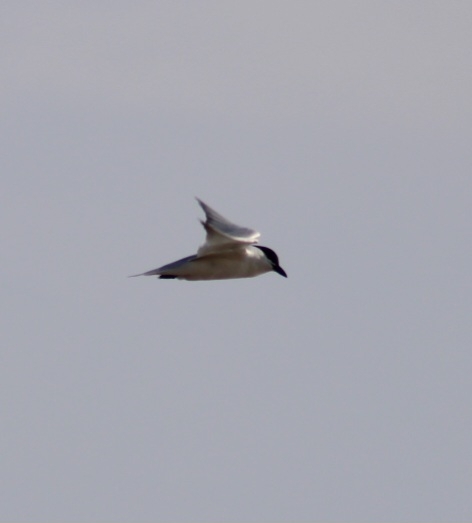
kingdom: Animalia
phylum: Chordata
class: Aves
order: Charadriiformes
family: Laridae
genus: Gelochelidon
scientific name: Gelochelidon nilotica
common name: Gull-billed tern
